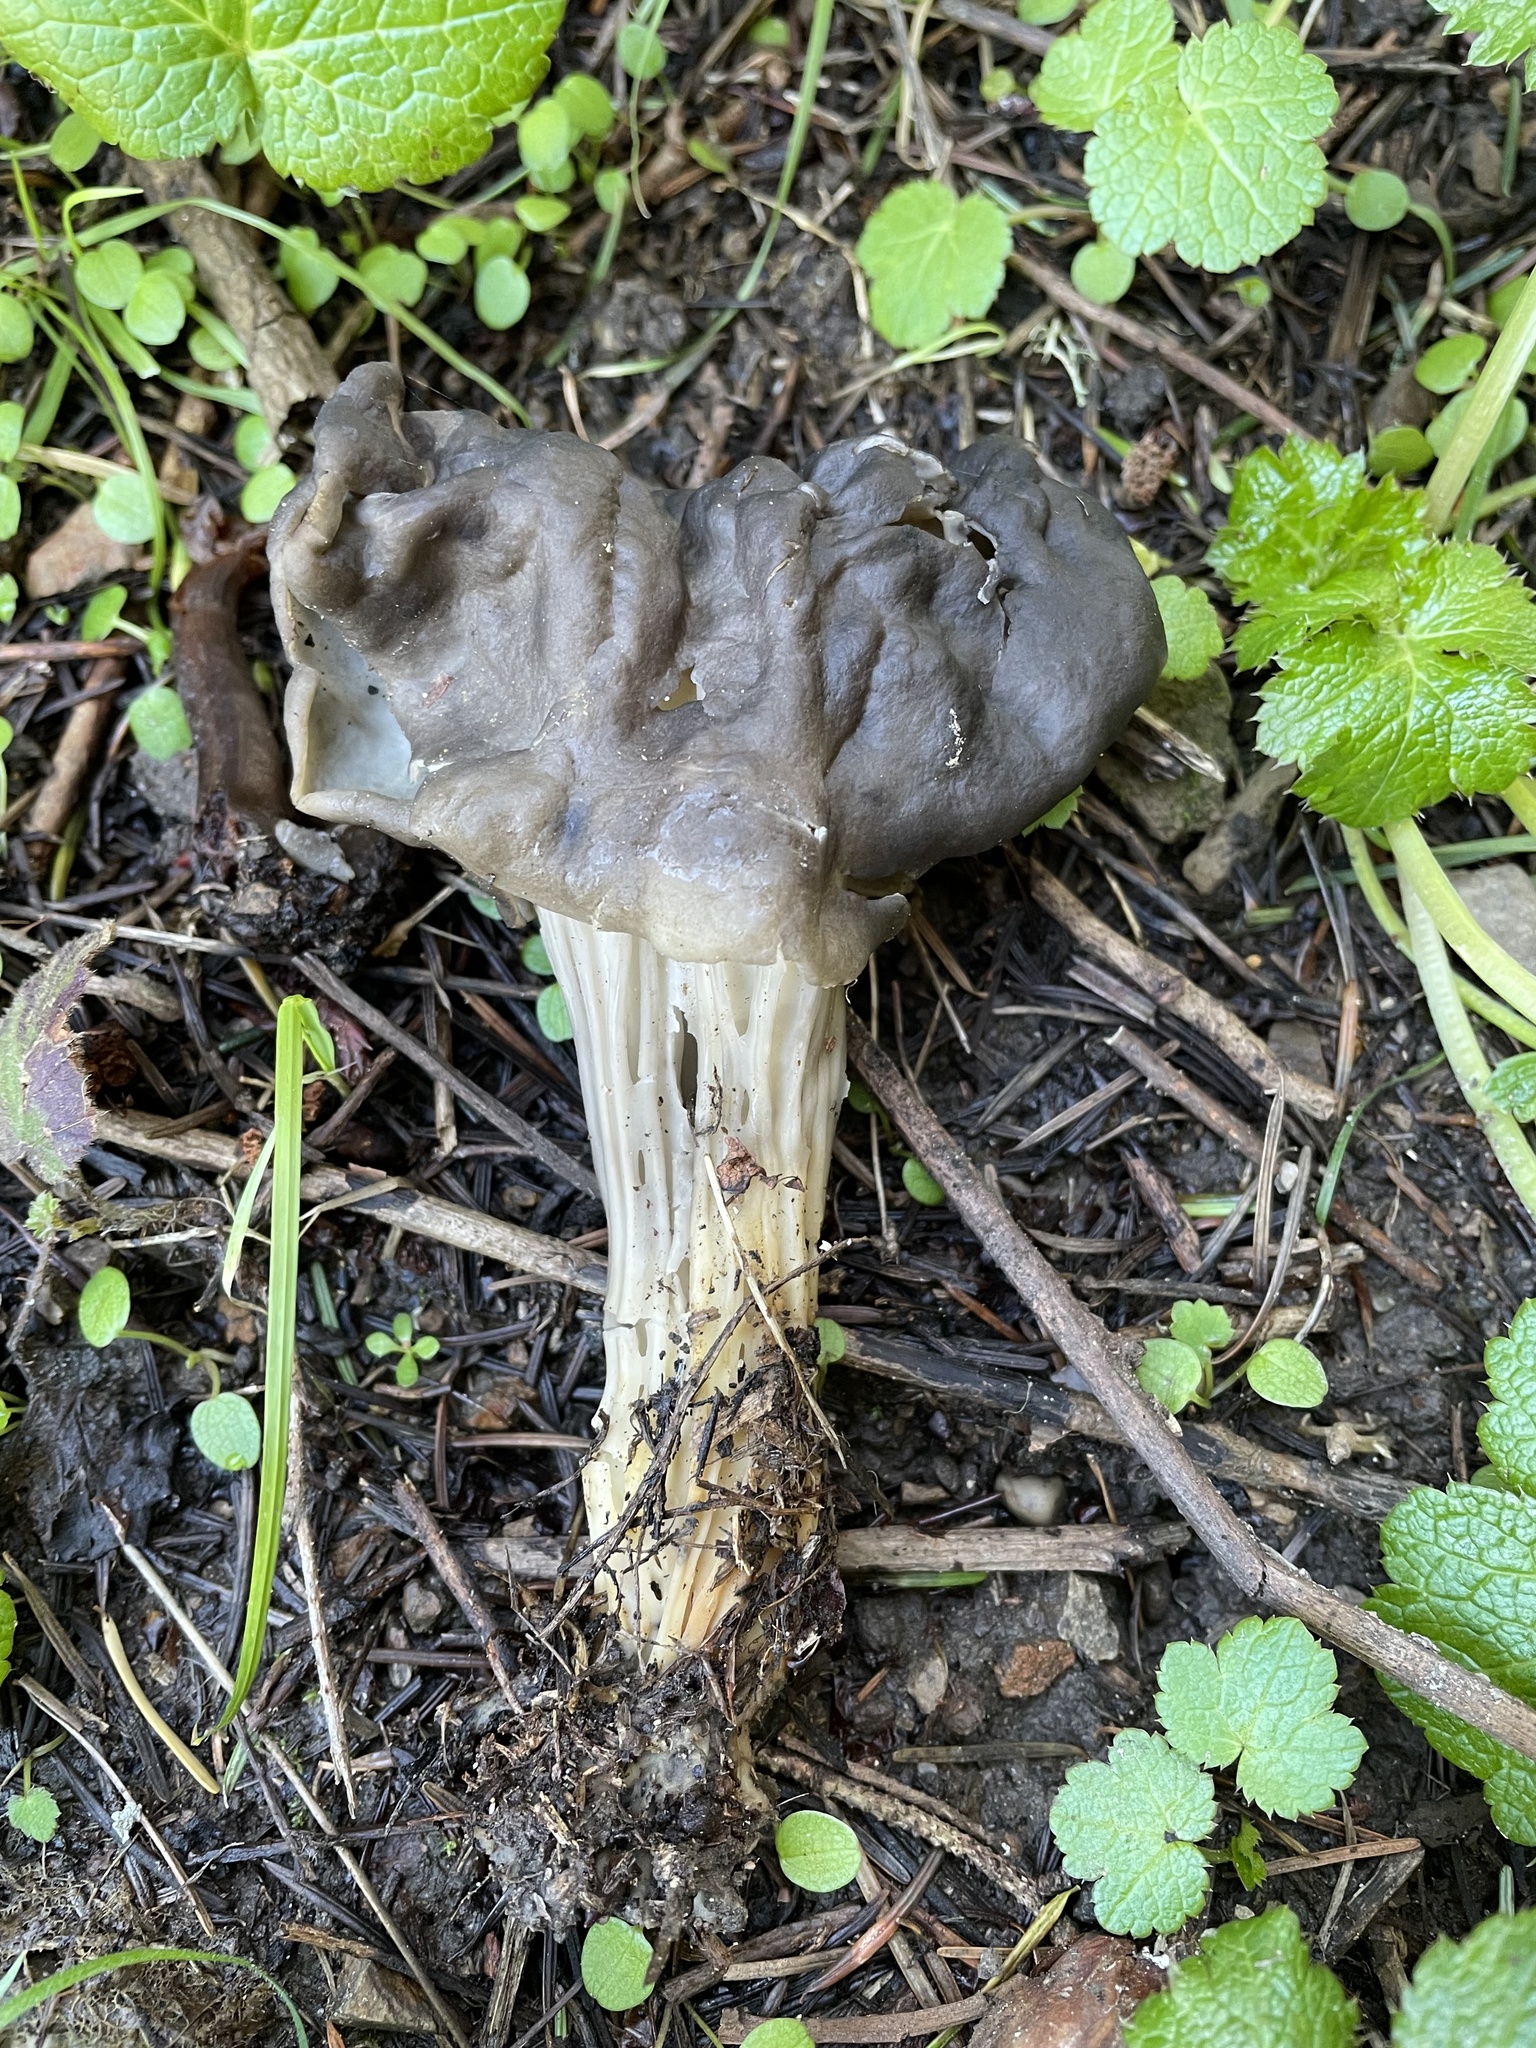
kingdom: Fungi
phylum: Ascomycota
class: Pezizomycetes
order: Pezizales
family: Helvellaceae
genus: Helvella
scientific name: Helvella vespertina
